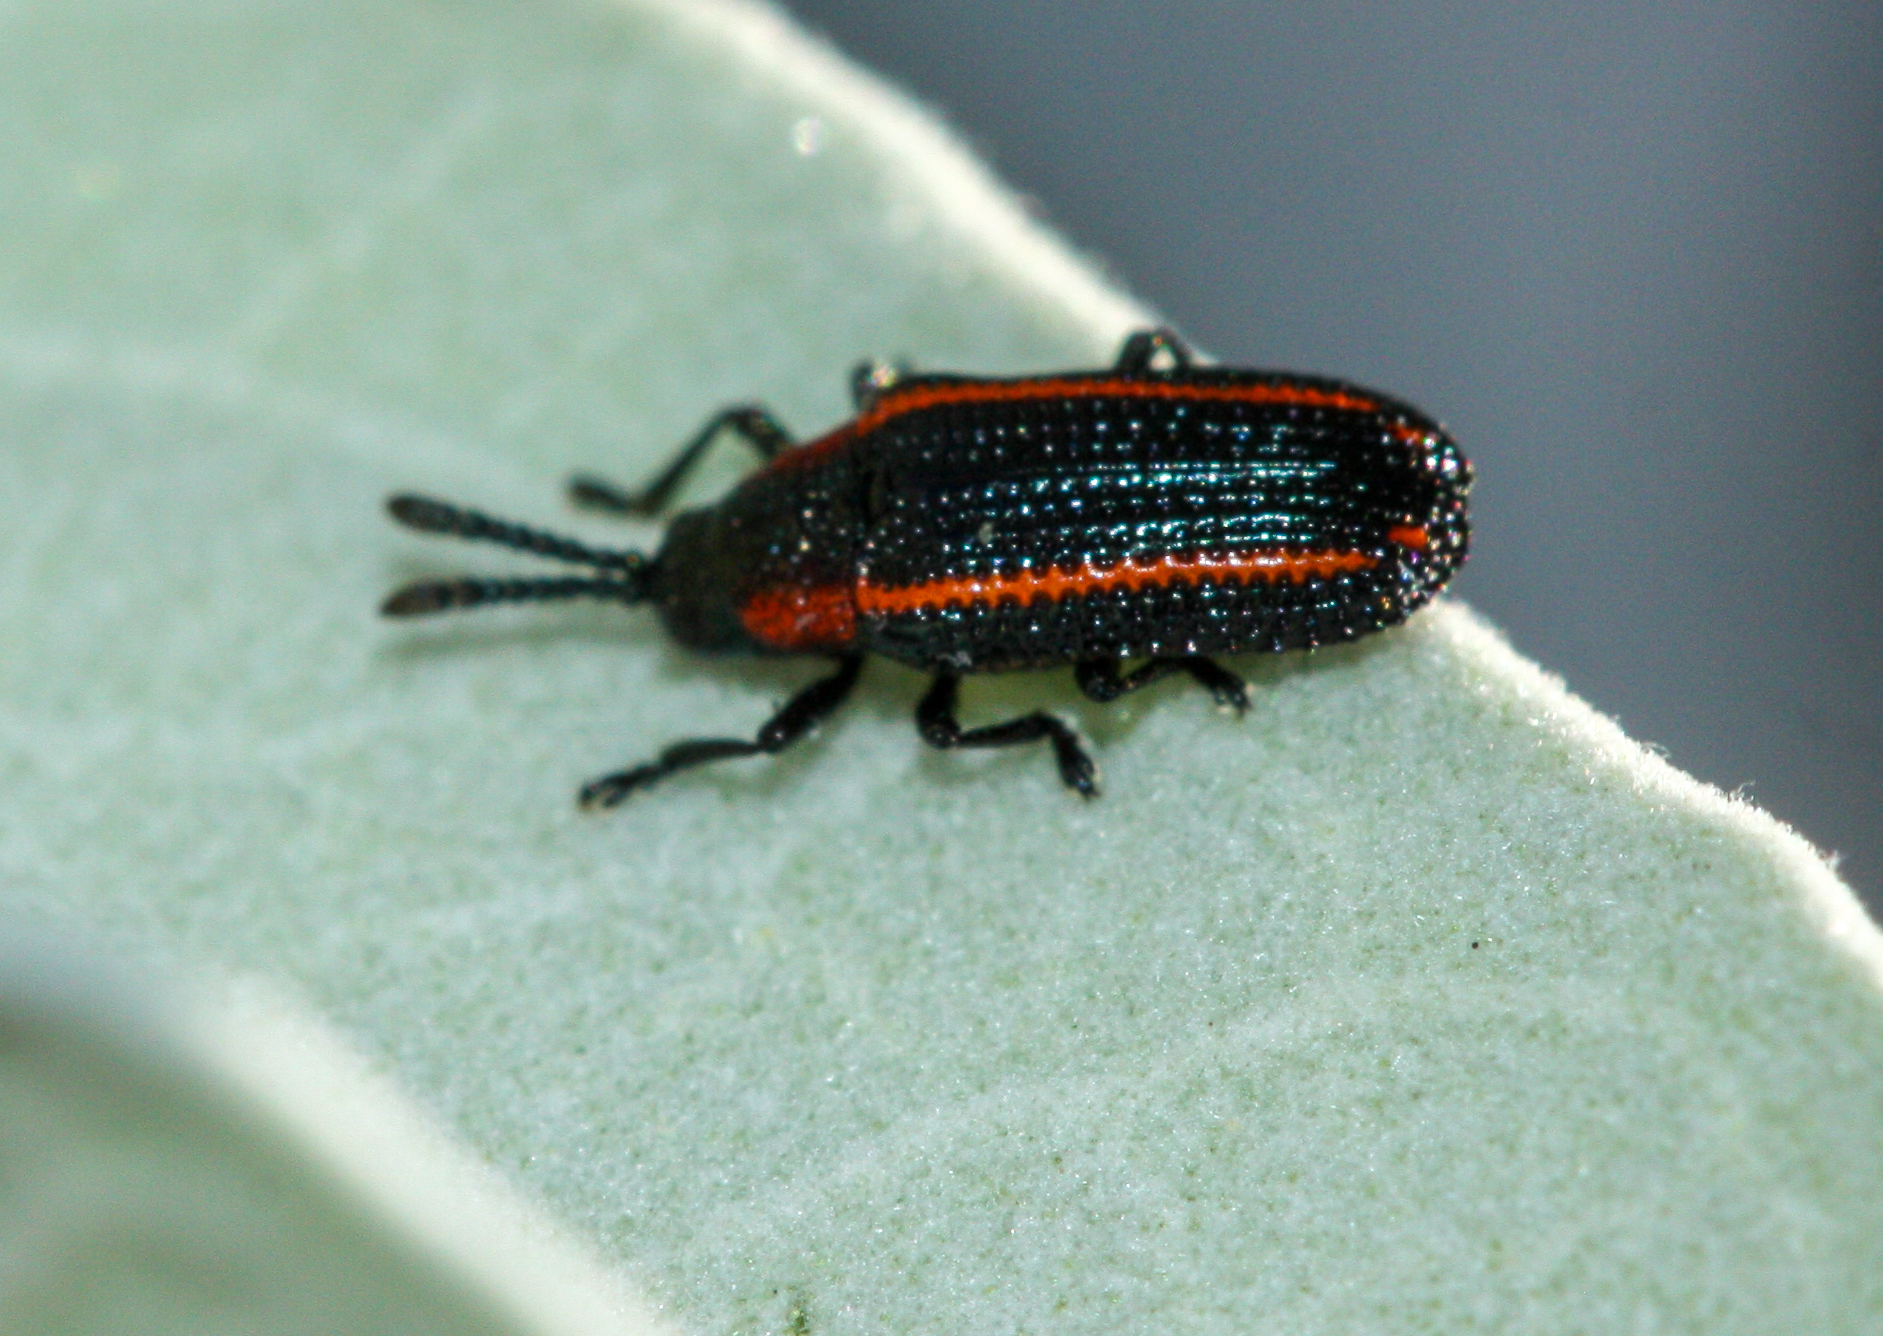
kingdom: Animalia
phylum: Arthropoda
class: Insecta
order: Coleoptera
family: Chrysomelidae
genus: Microrhopala
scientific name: Microrhopala rubrolineata
